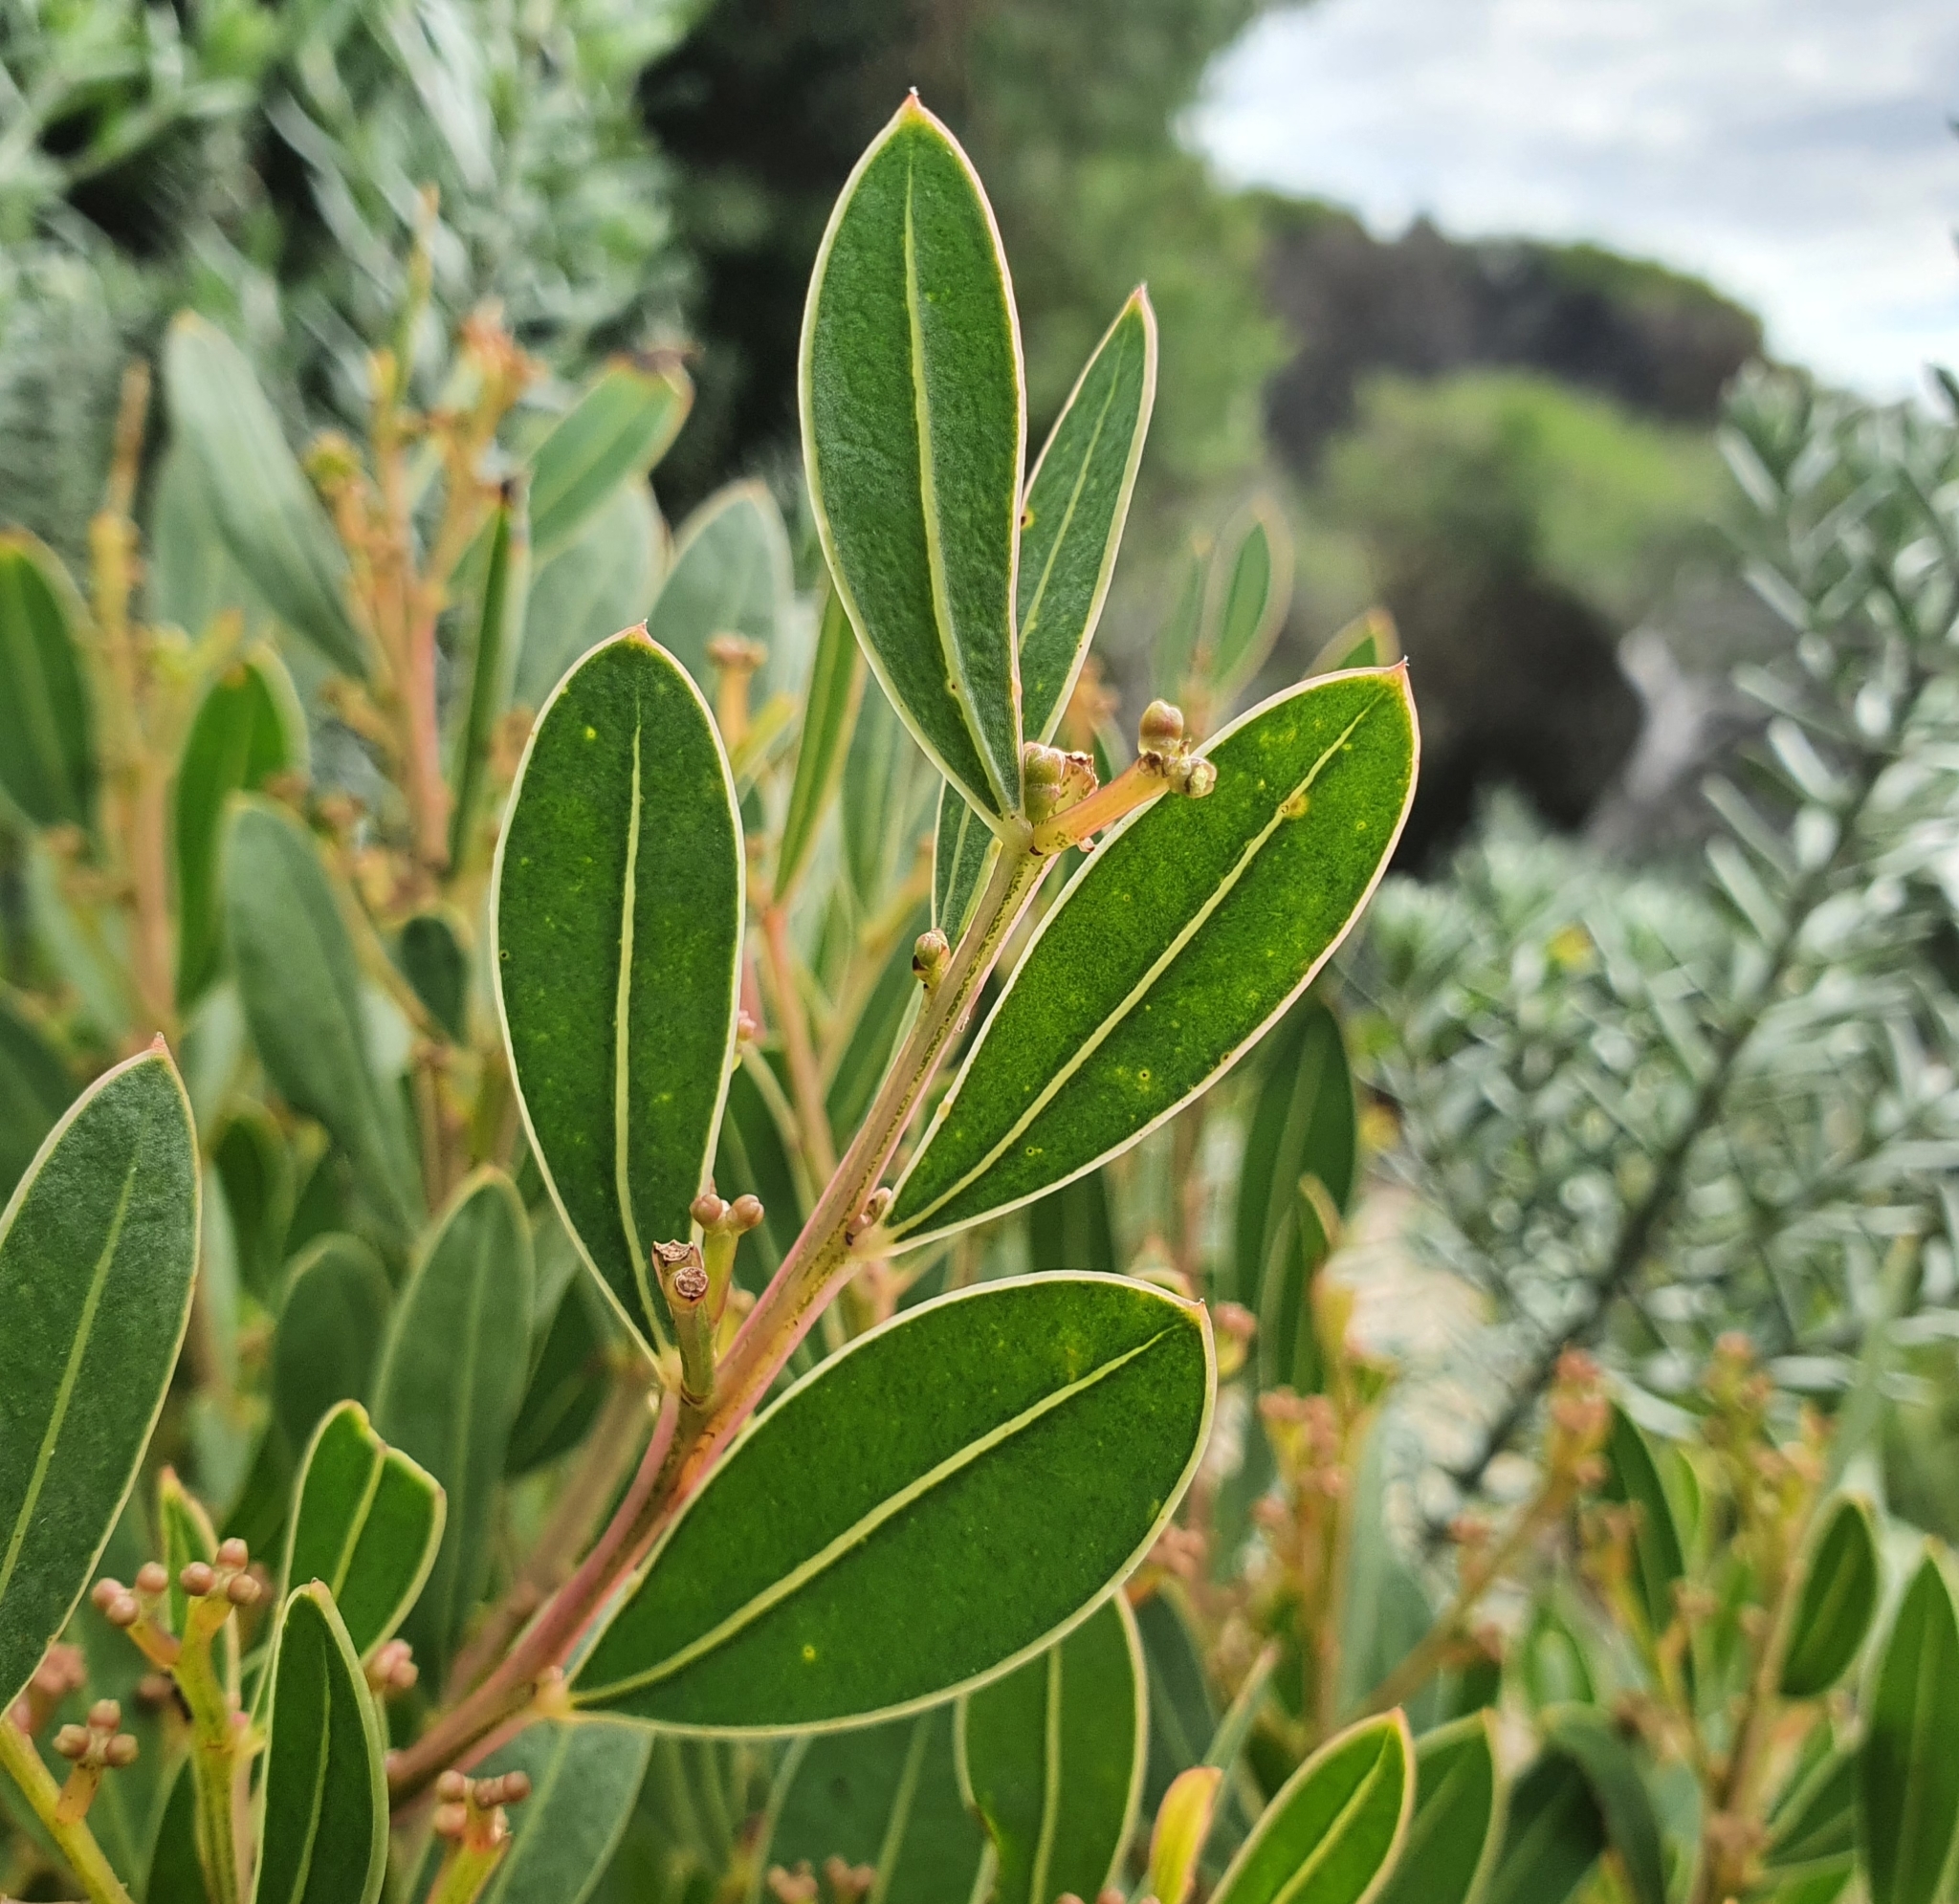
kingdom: Plantae
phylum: Tracheophyta
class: Magnoliopsida
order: Fabales
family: Fabaceae
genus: Acacia
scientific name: Acacia myrtifolia
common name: Myrtle wattle
